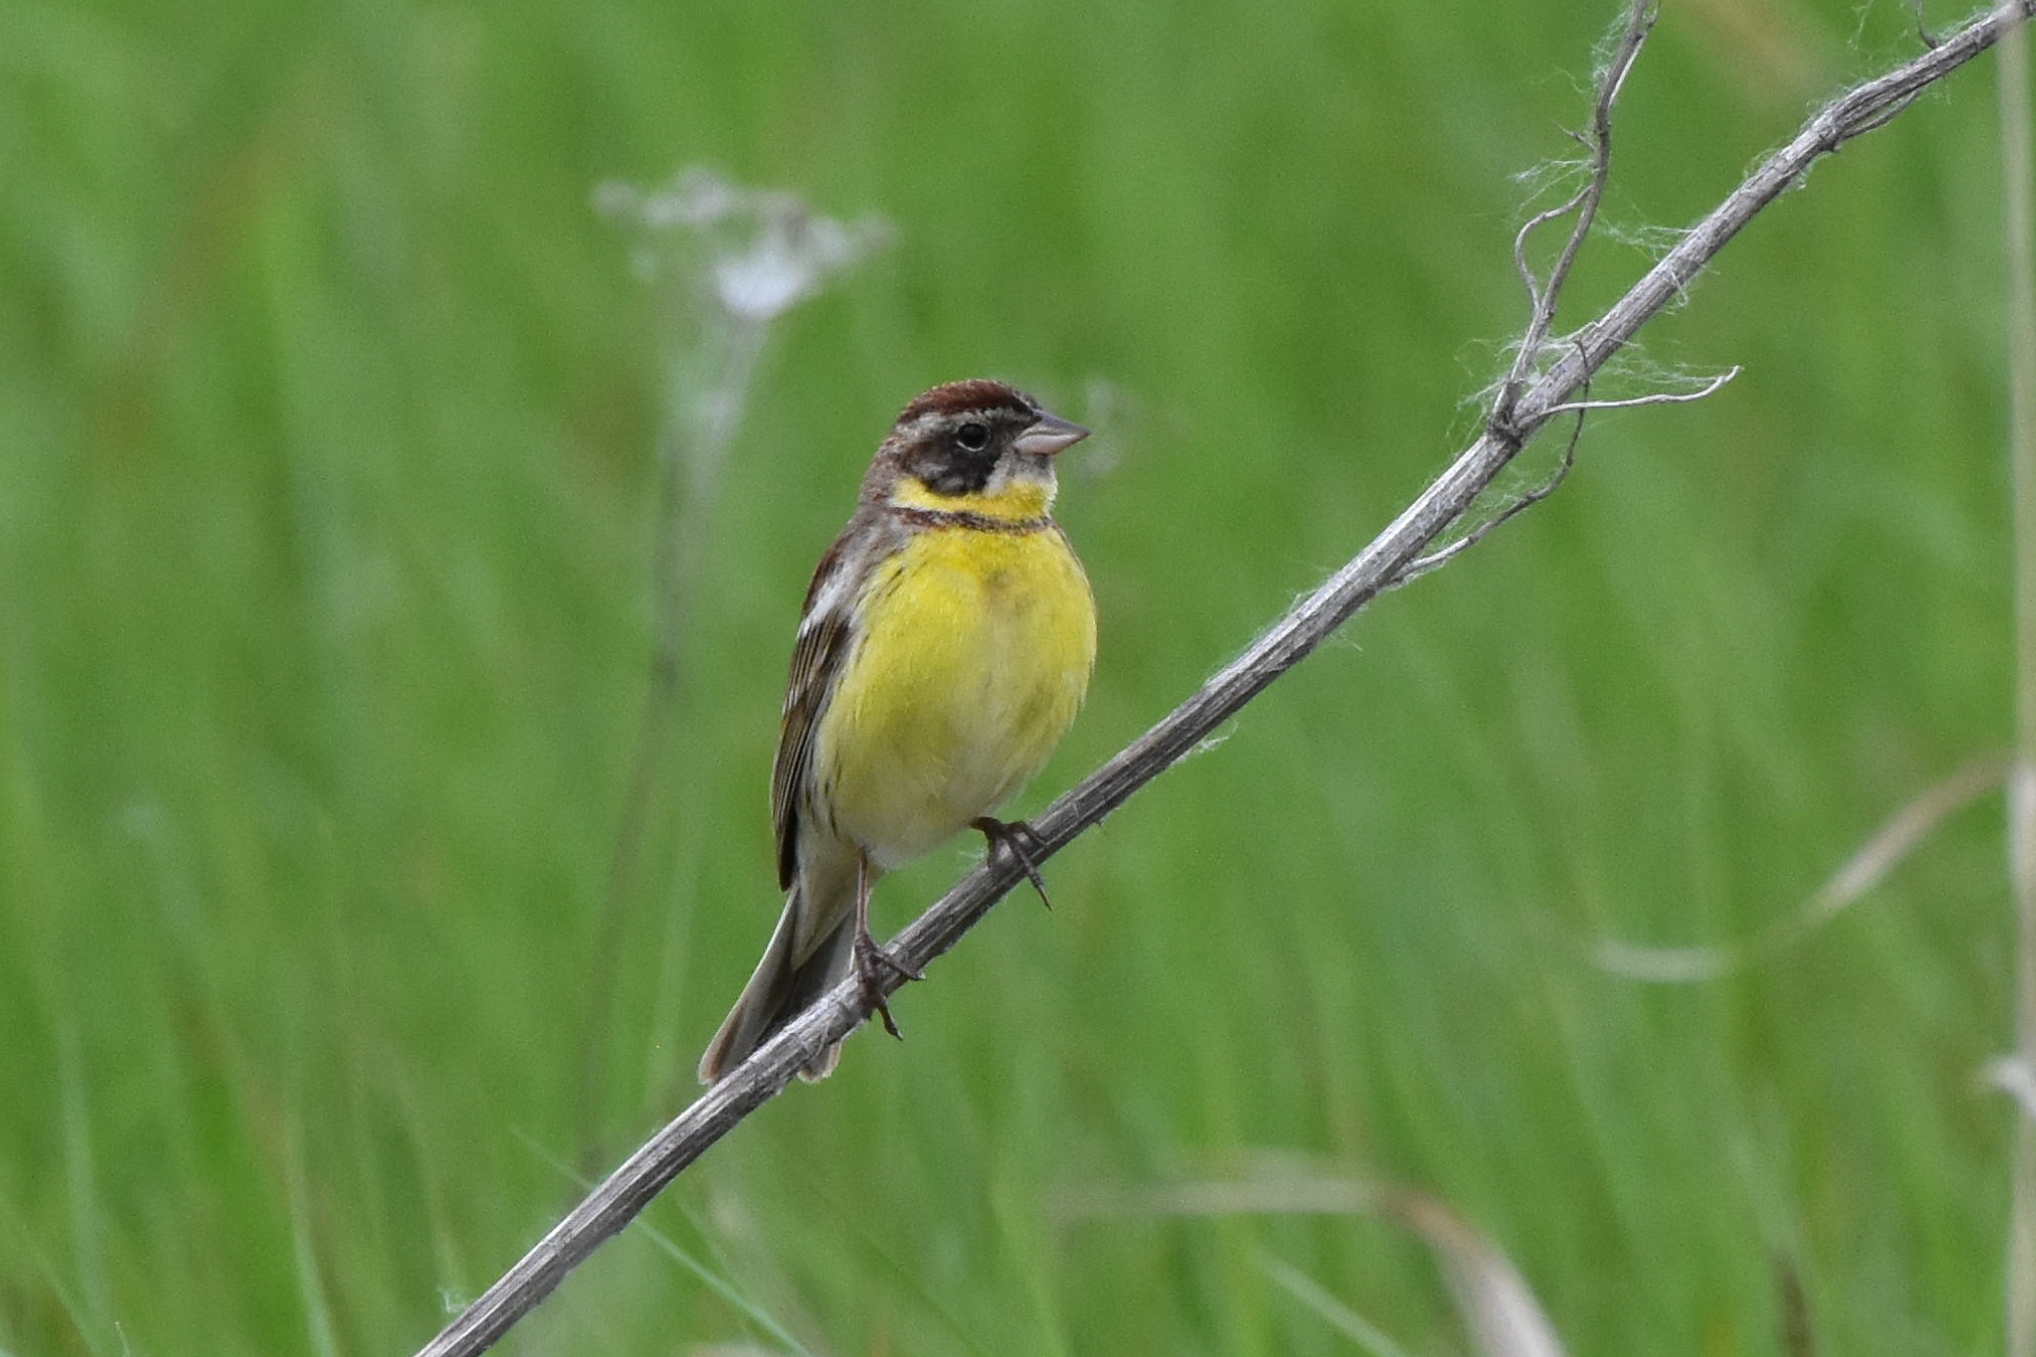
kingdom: Animalia
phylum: Chordata
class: Aves
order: Passeriformes
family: Emberizidae
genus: Emberiza
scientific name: Emberiza aureola
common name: Yellow-breasted bunting
